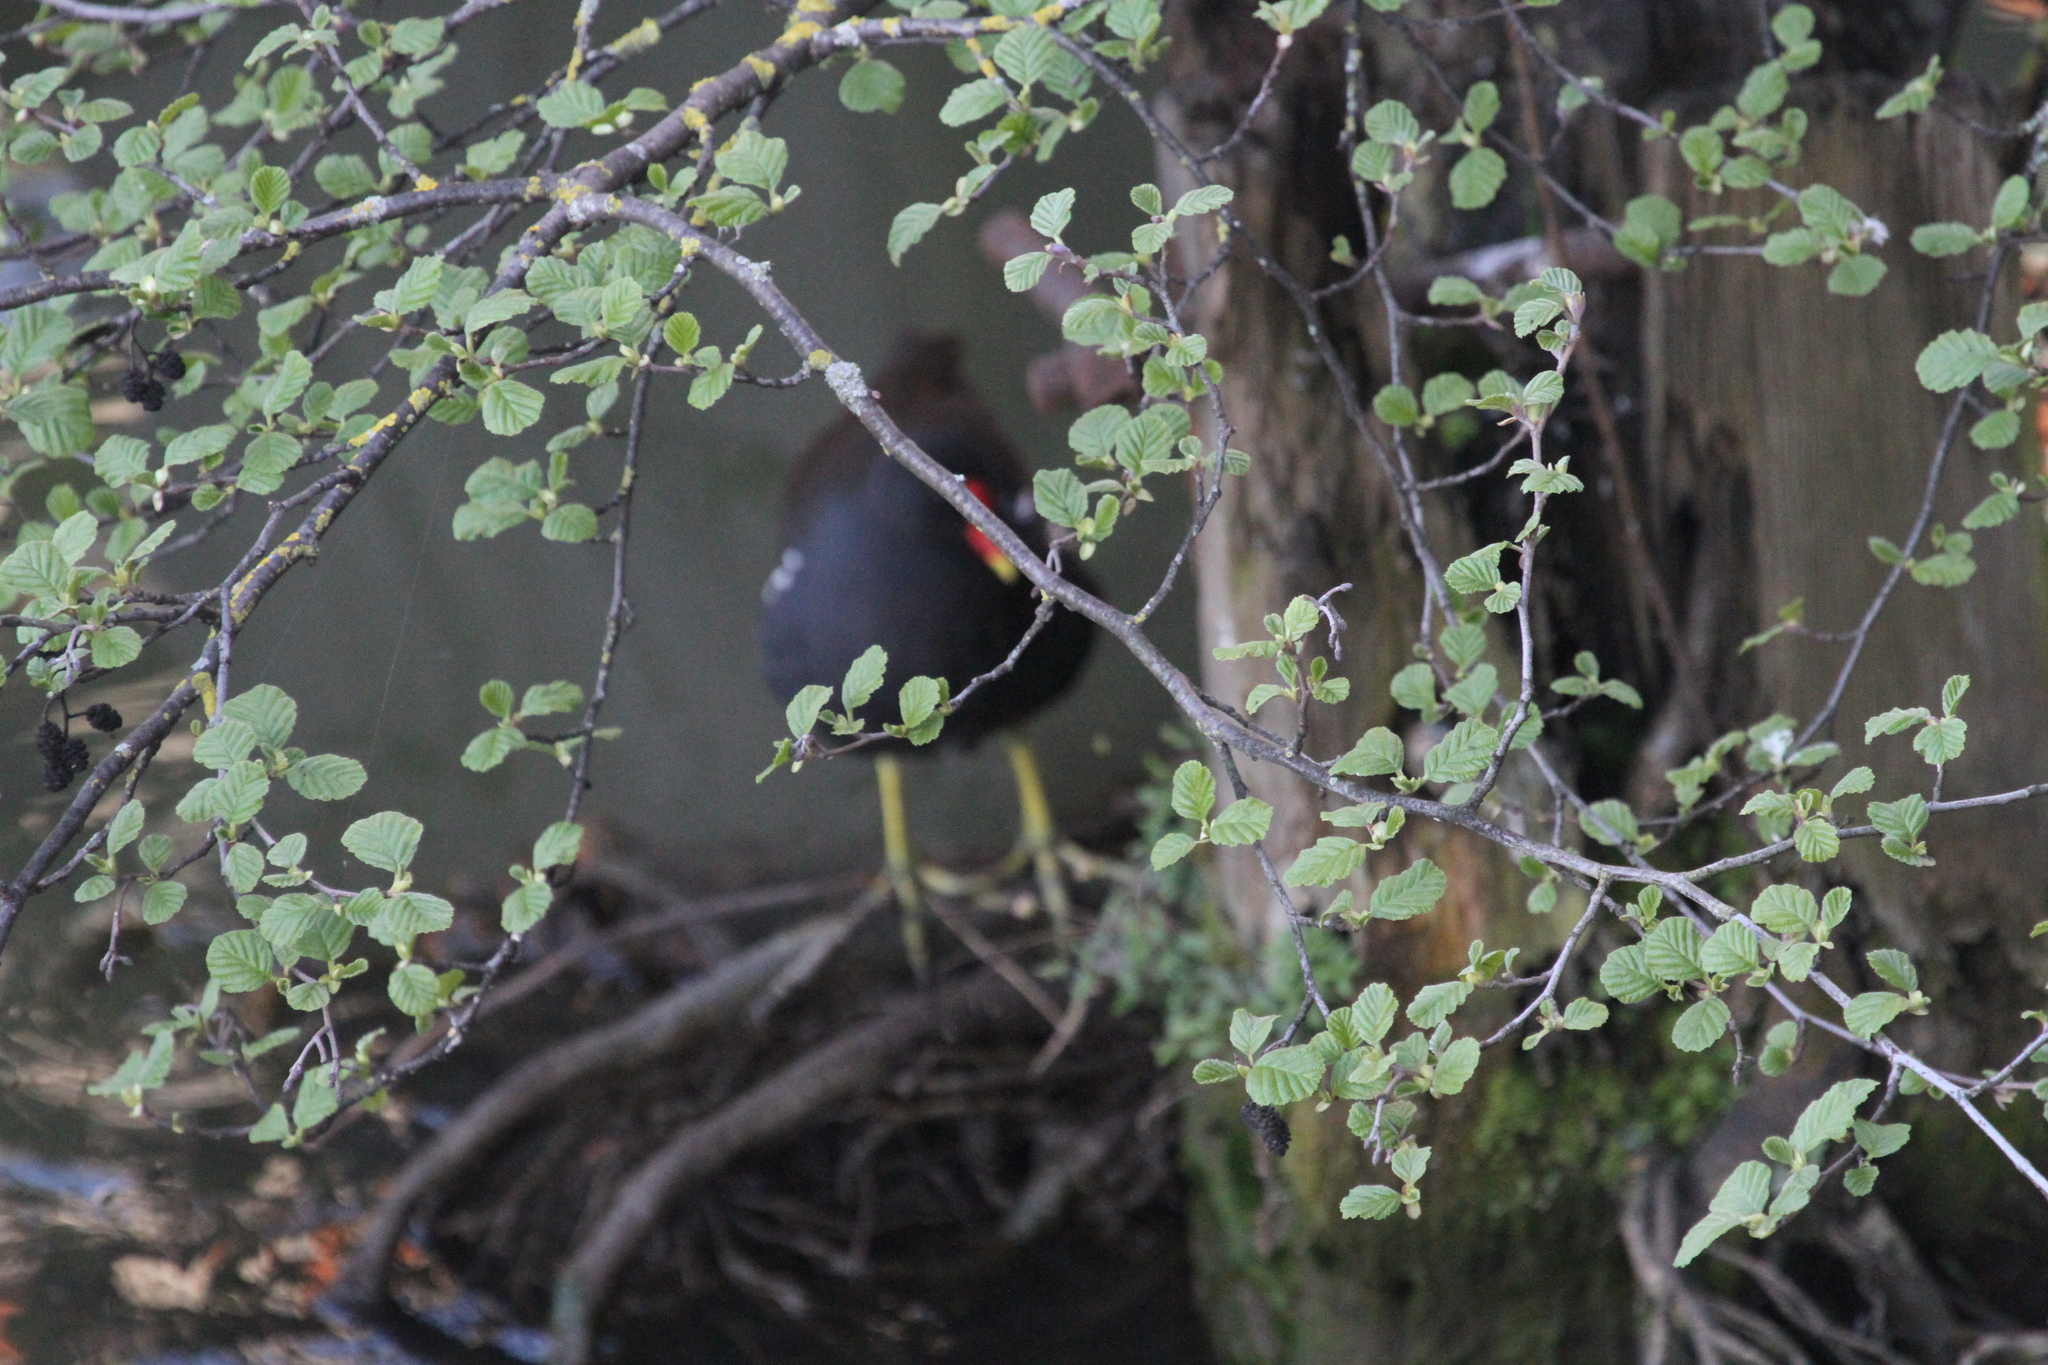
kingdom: Animalia
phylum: Chordata
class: Aves
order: Gruiformes
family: Rallidae
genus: Gallinula
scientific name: Gallinula chloropus
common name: Common moorhen
